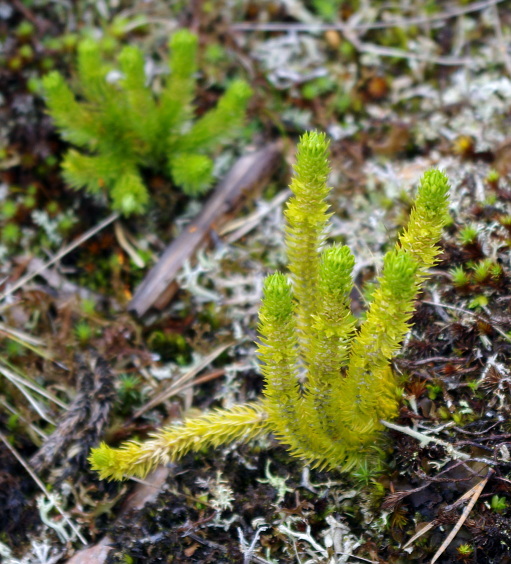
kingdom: Plantae
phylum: Tracheophyta
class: Lycopodiopsida
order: Lycopodiales
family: Lycopodiaceae
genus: Huperzia
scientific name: Huperzia selago
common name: Northern firmoss
